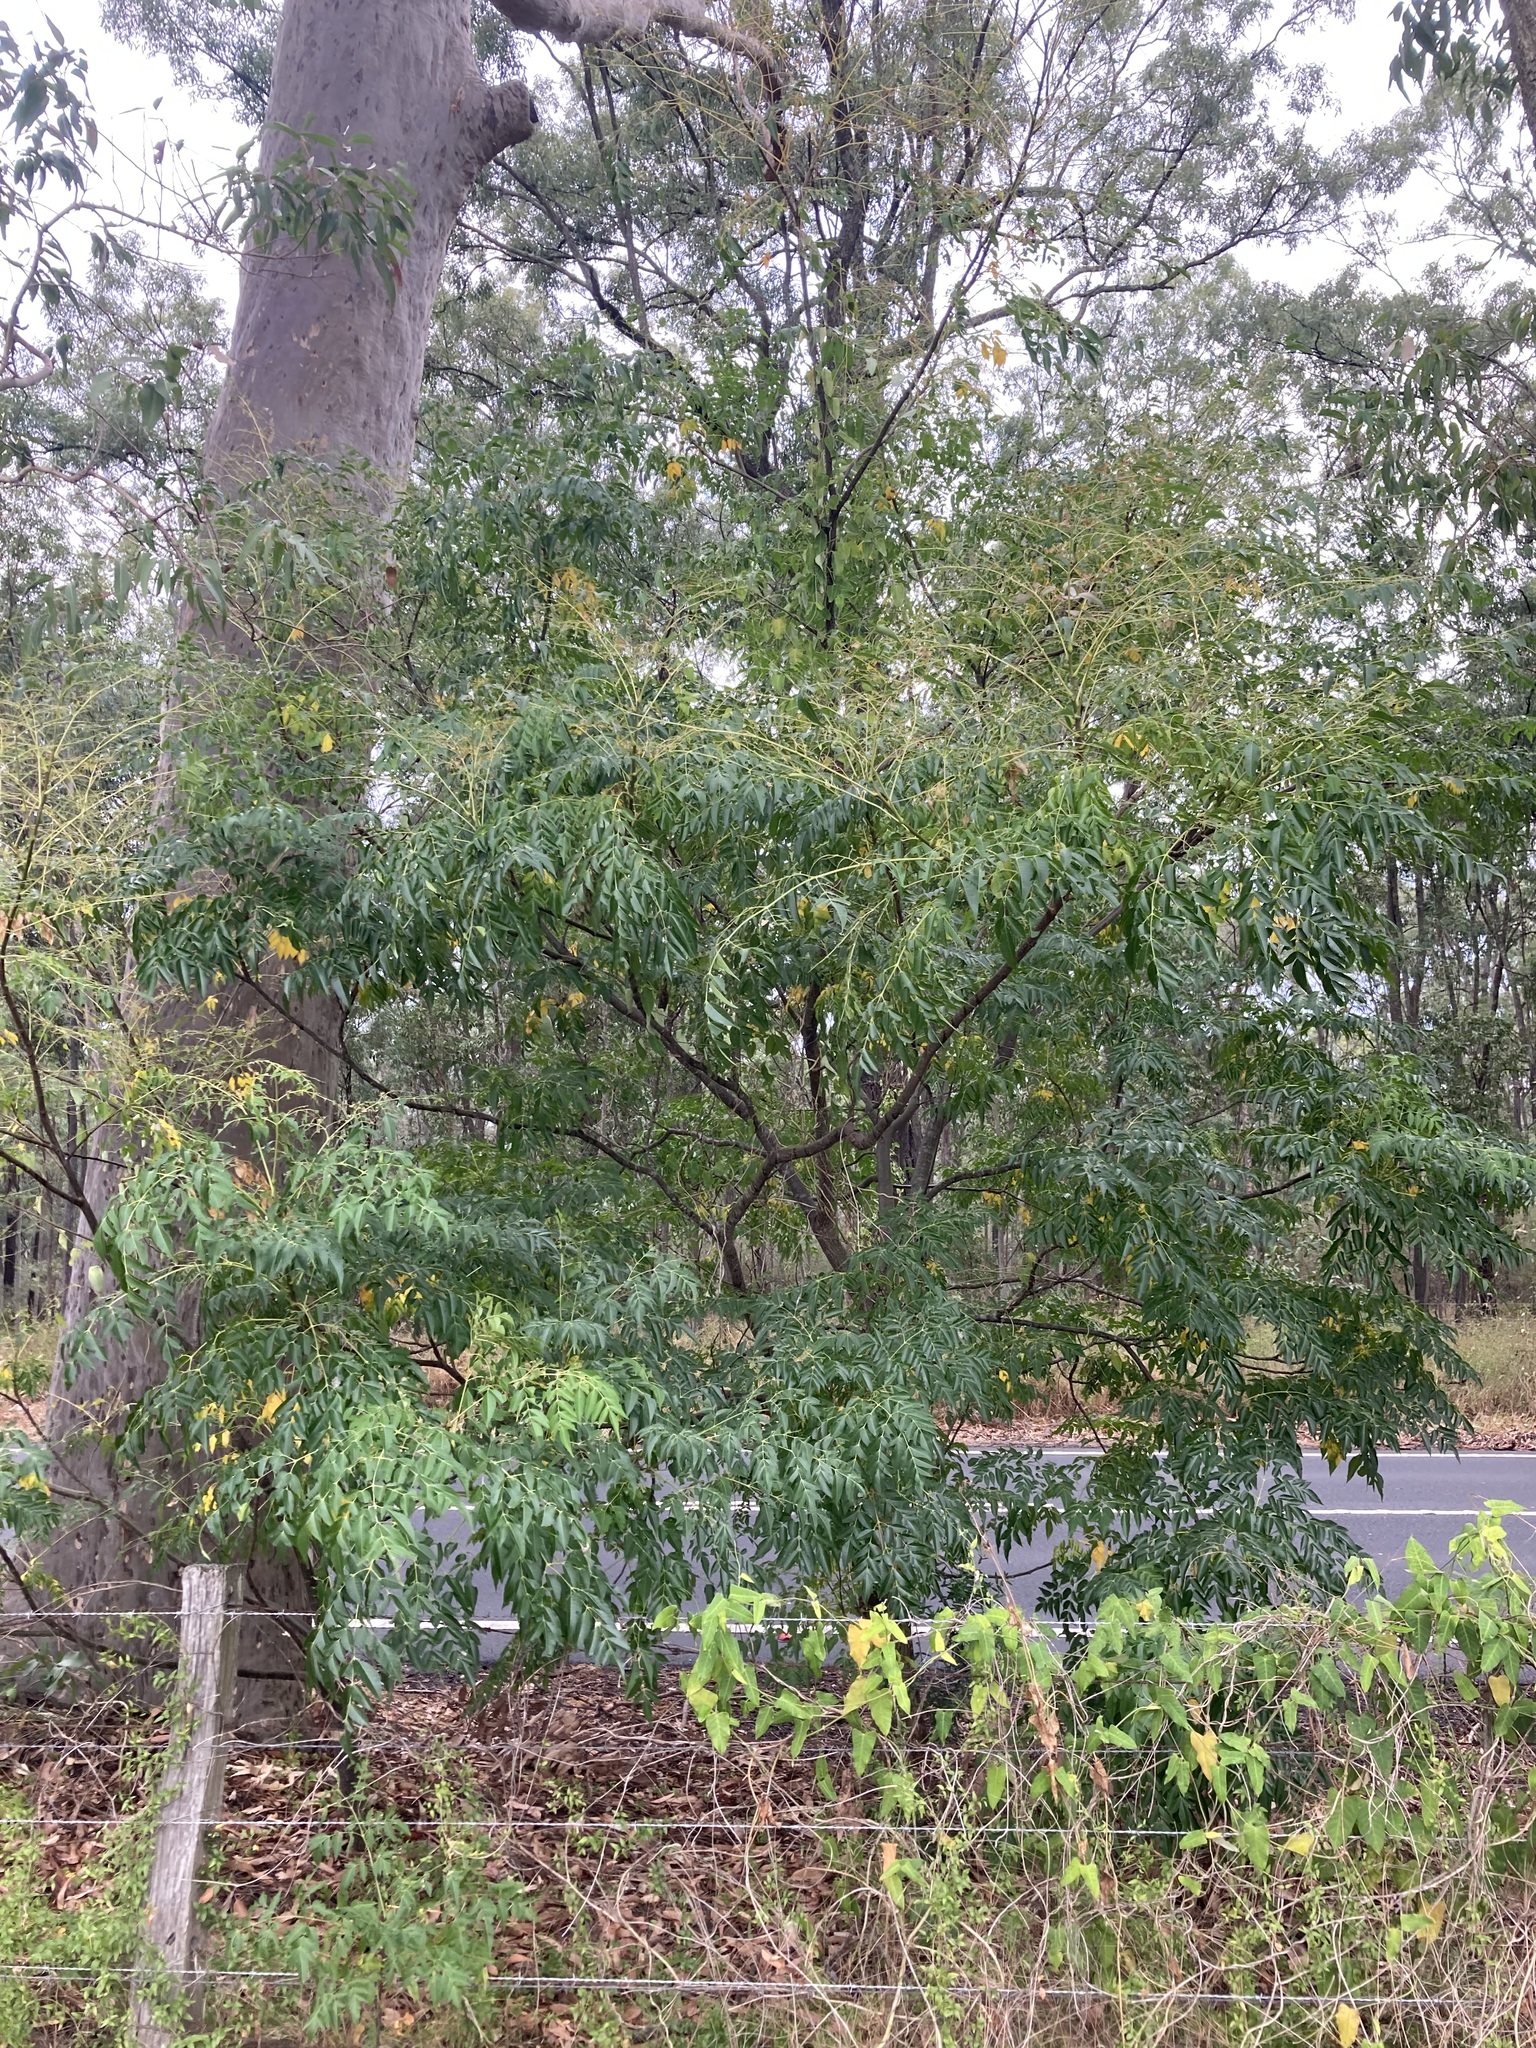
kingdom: Plantae
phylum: Tracheophyta
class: Magnoliopsida
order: Sapindales
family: Meliaceae
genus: Melia
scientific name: Melia azedarach
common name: Chinaberrytree
